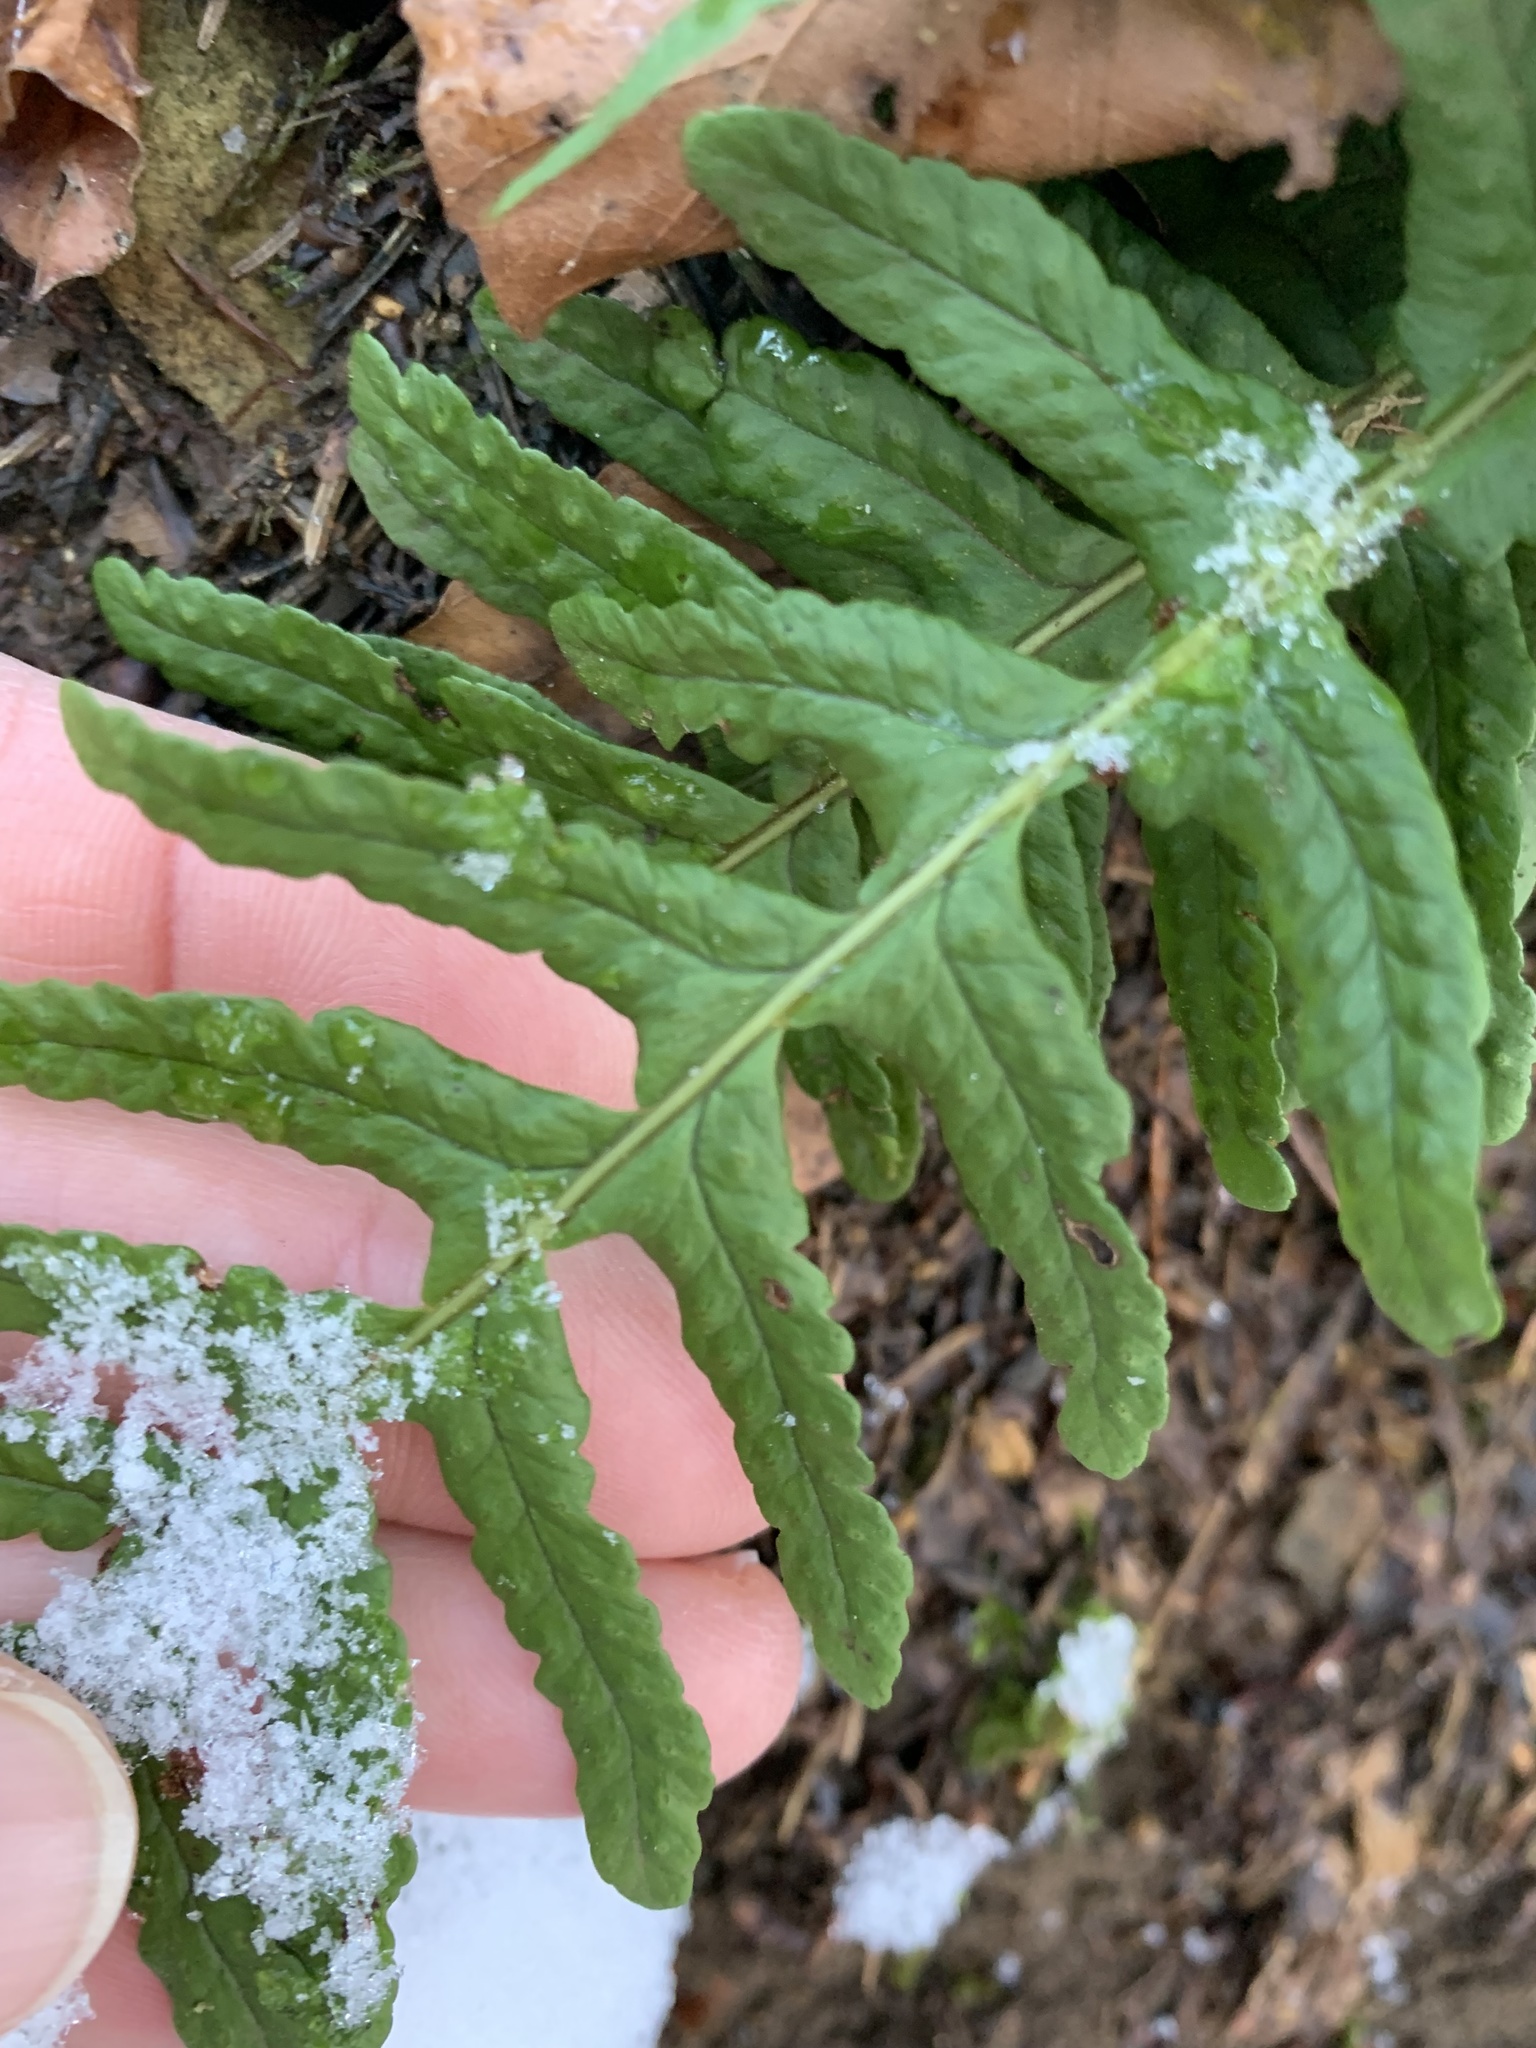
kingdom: Plantae
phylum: Tracheophyta
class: Polypodiopsida
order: Polypodiales
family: Polypodiaceae
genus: Polypodium
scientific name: Polypodium vulgare
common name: Common polypody
